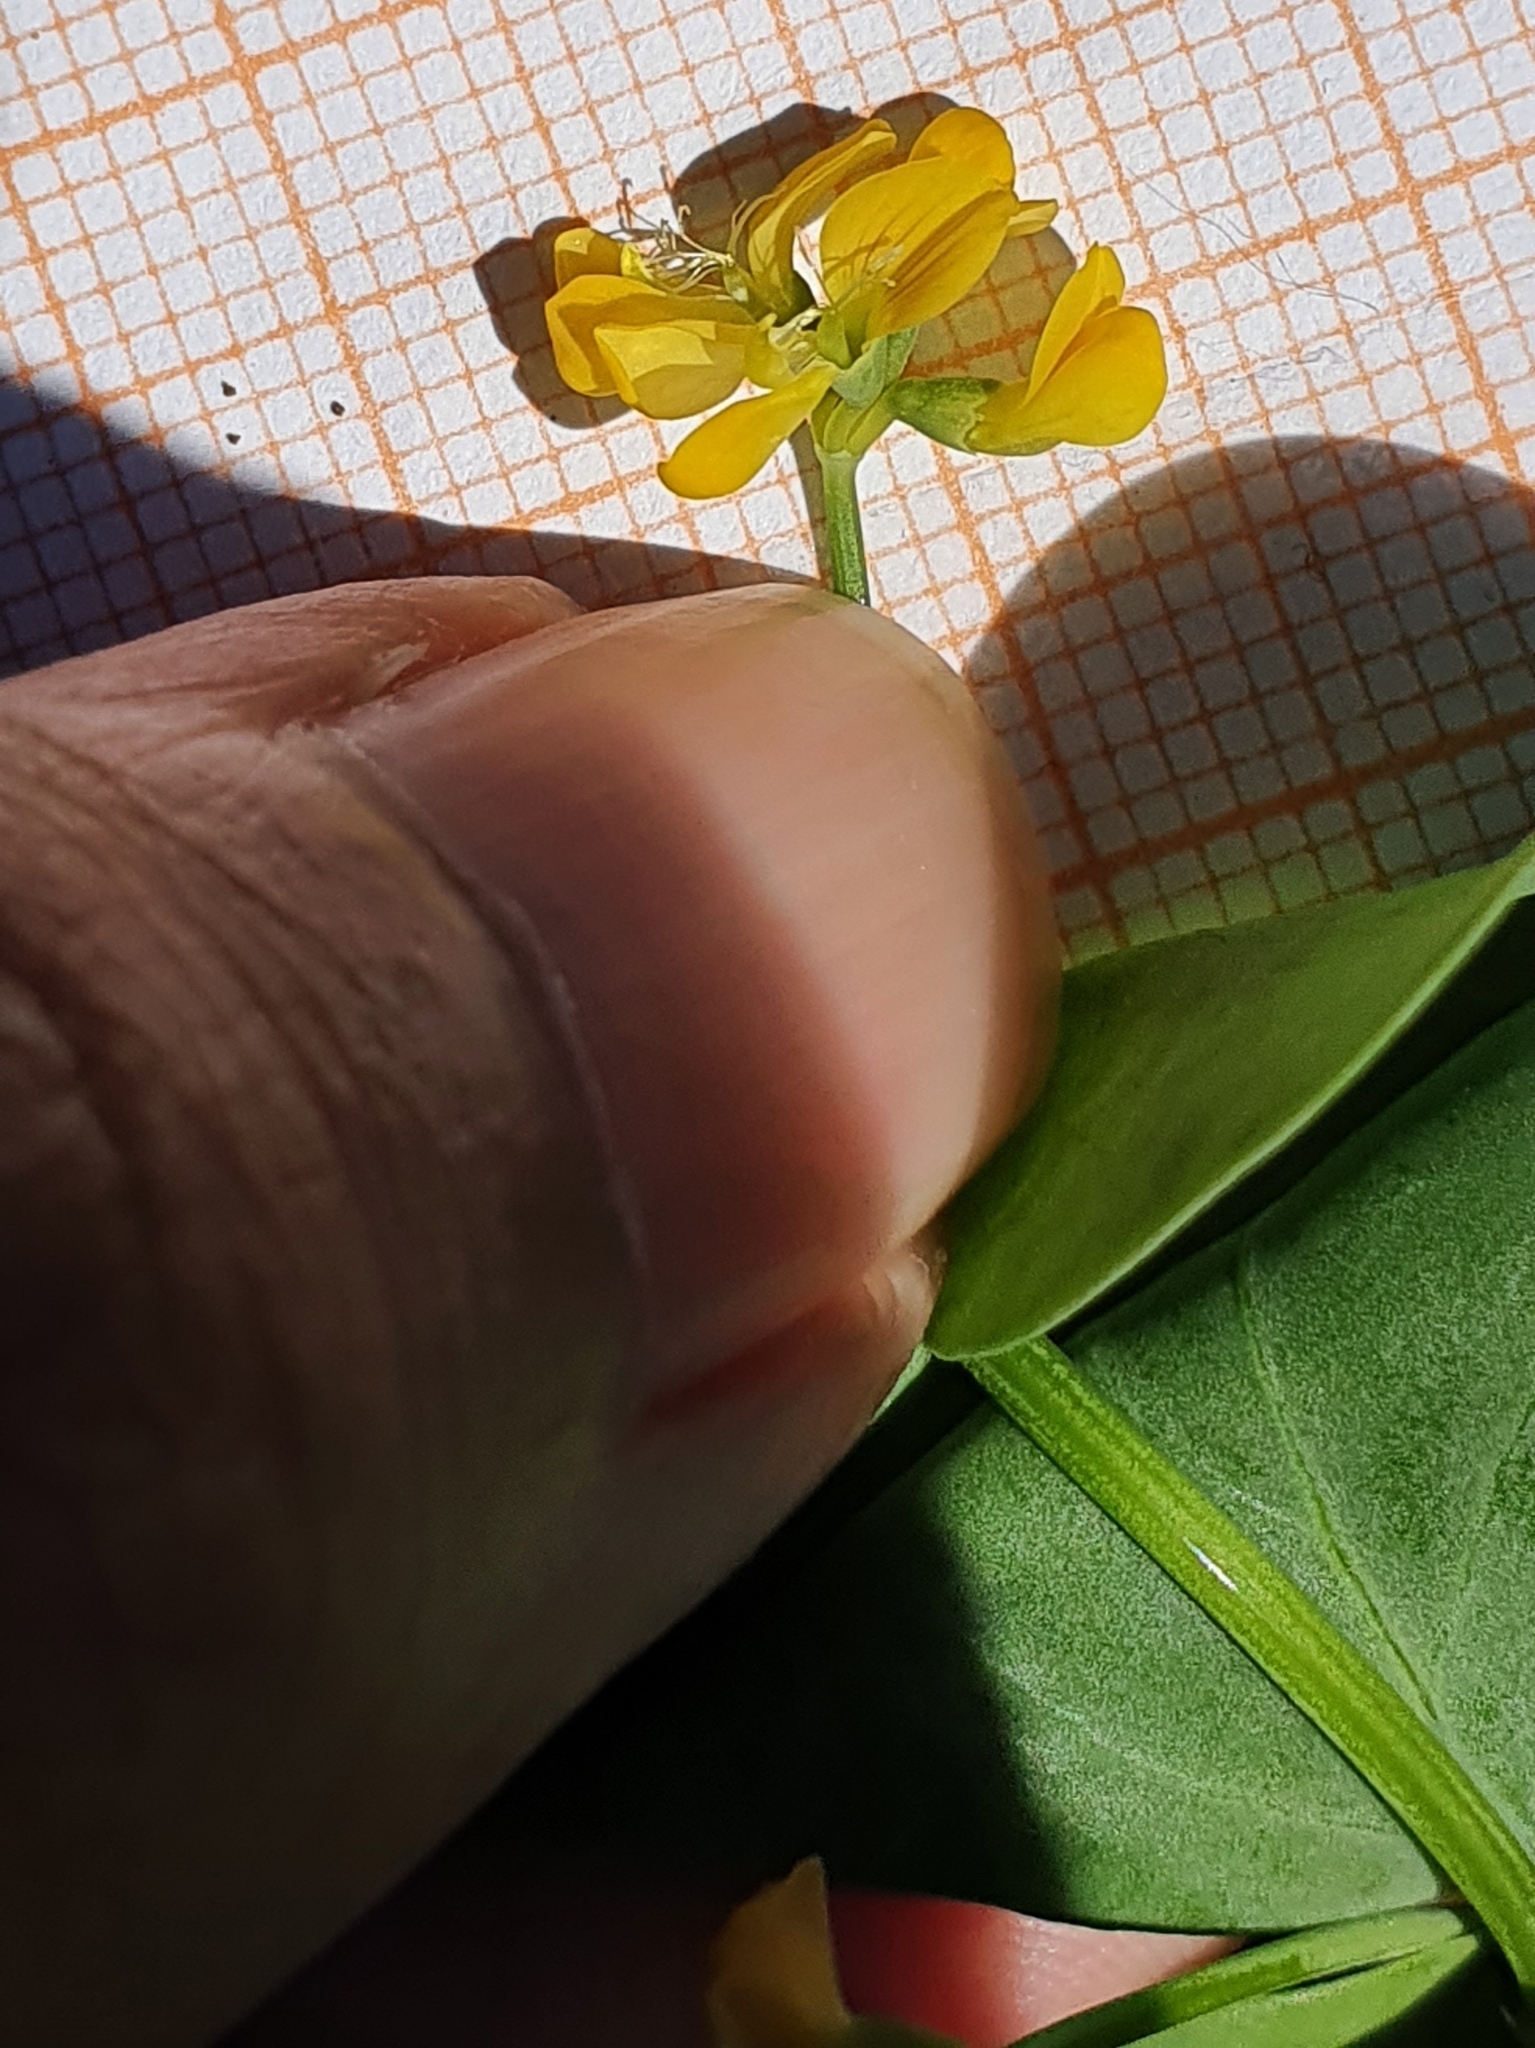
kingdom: Plantae
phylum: Tracheophyta
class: Magnoliopsida
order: Fabales
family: Fabaceae
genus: Coronilla
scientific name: Coronilla scorpioides
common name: Annual scorpion-vetch
